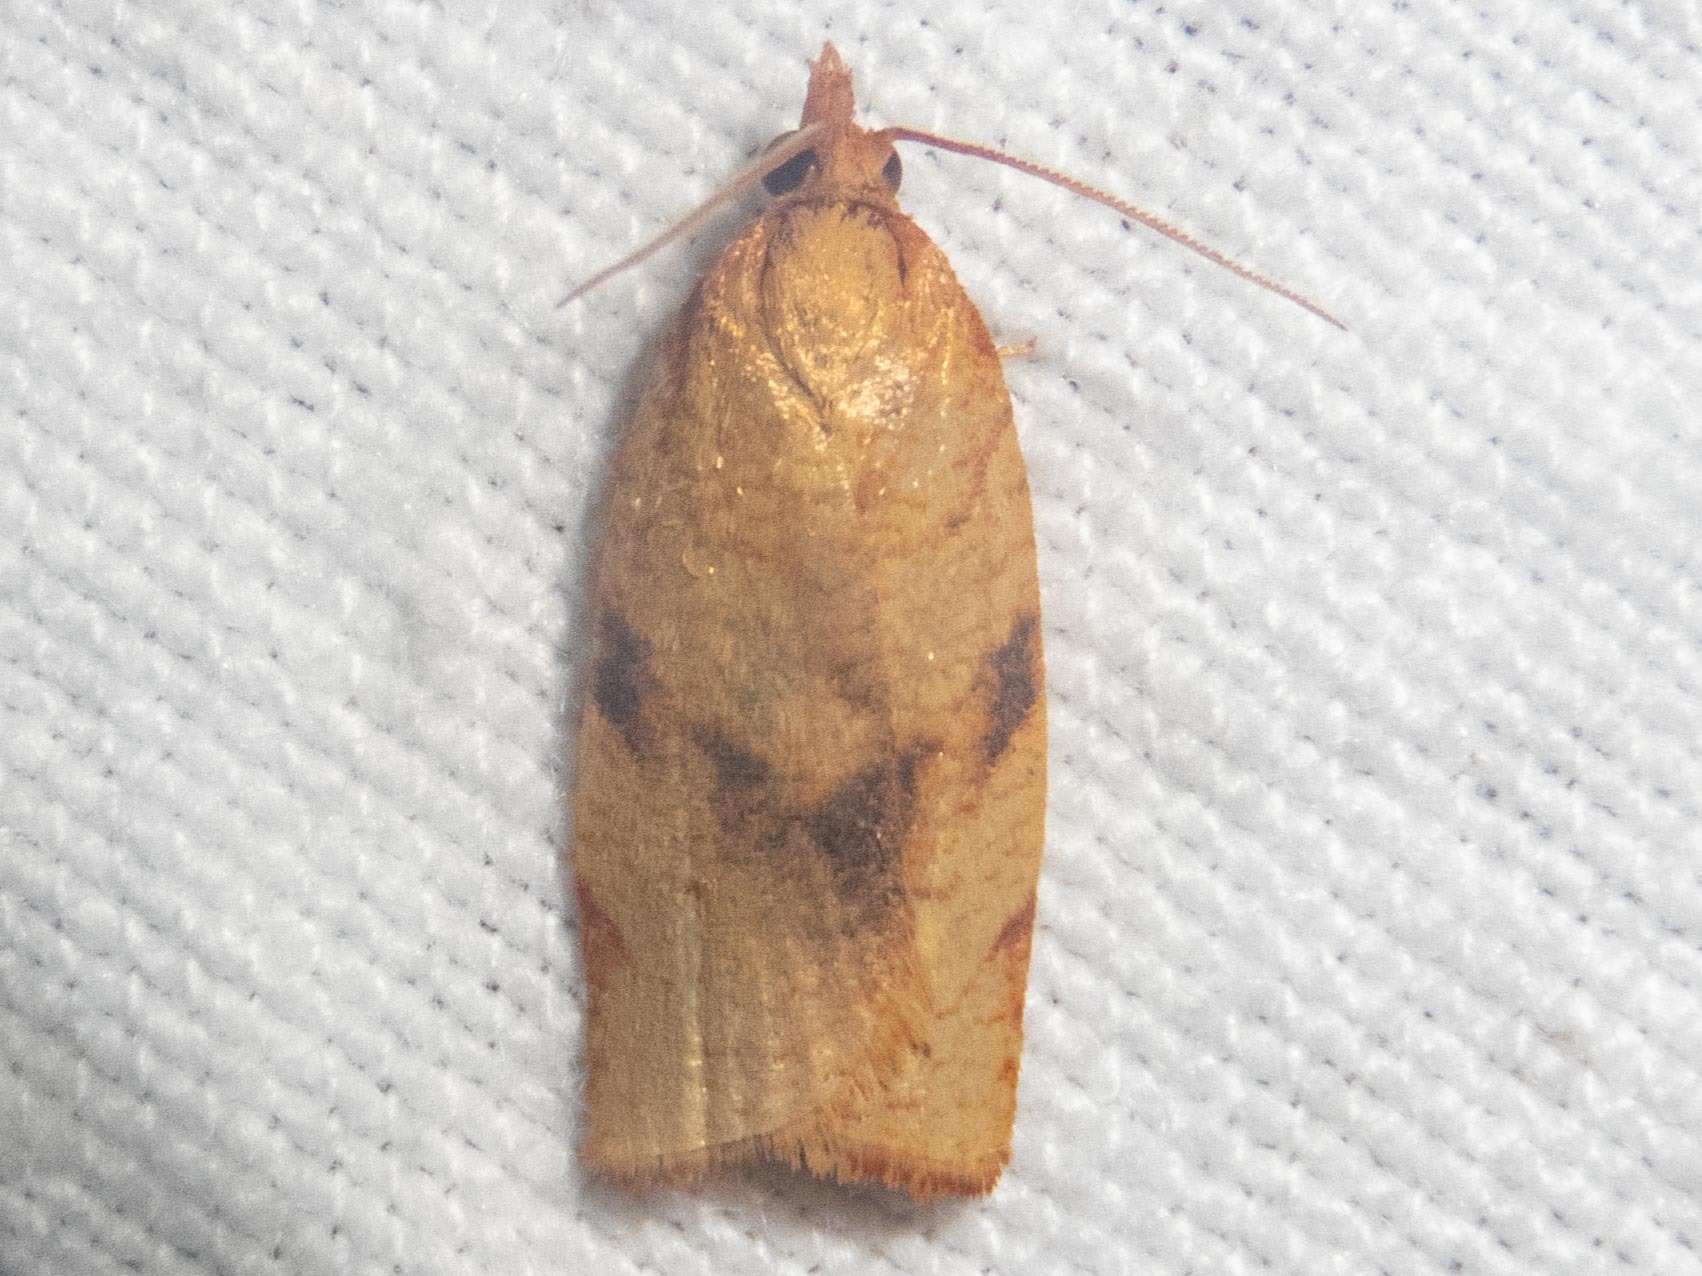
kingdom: Animalia
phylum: Arthropoda
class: Insecta
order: Lepidoptera
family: Tortricidae
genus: Lozotaenia
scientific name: Lozotaenia cupidinana
